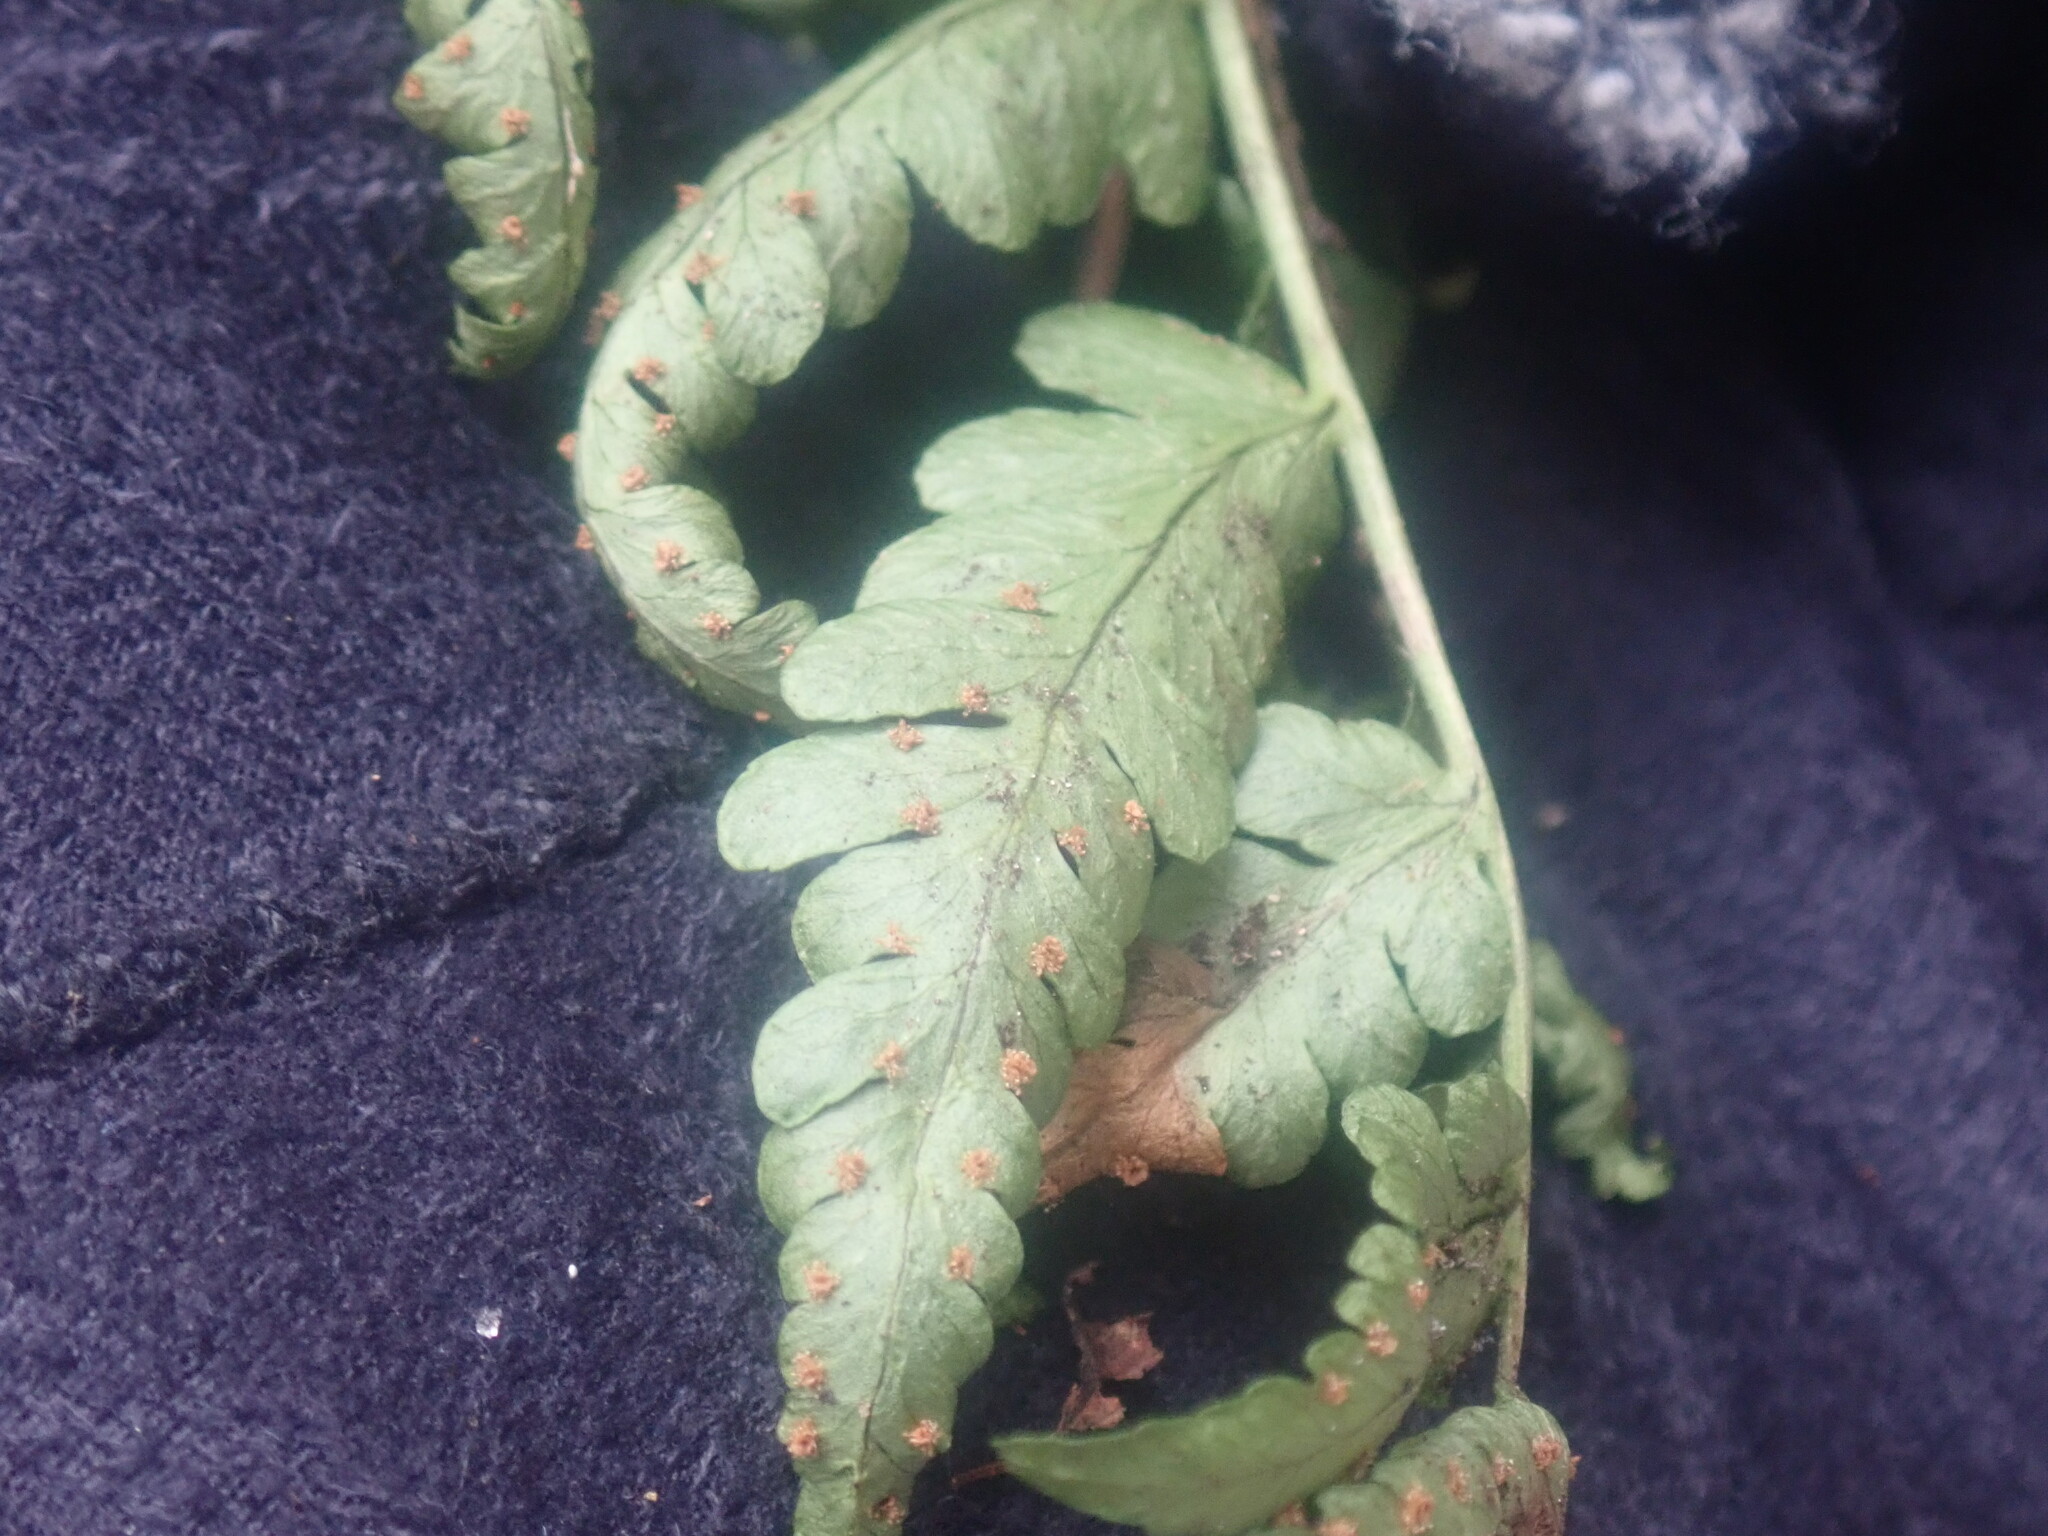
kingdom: Plantae
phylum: Tracheophyta
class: Polypodiopsida
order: Polypodiales
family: Dryopteridaceae
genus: Dryopteris
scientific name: Dryopteris marginalis
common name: Marginal wood fern
